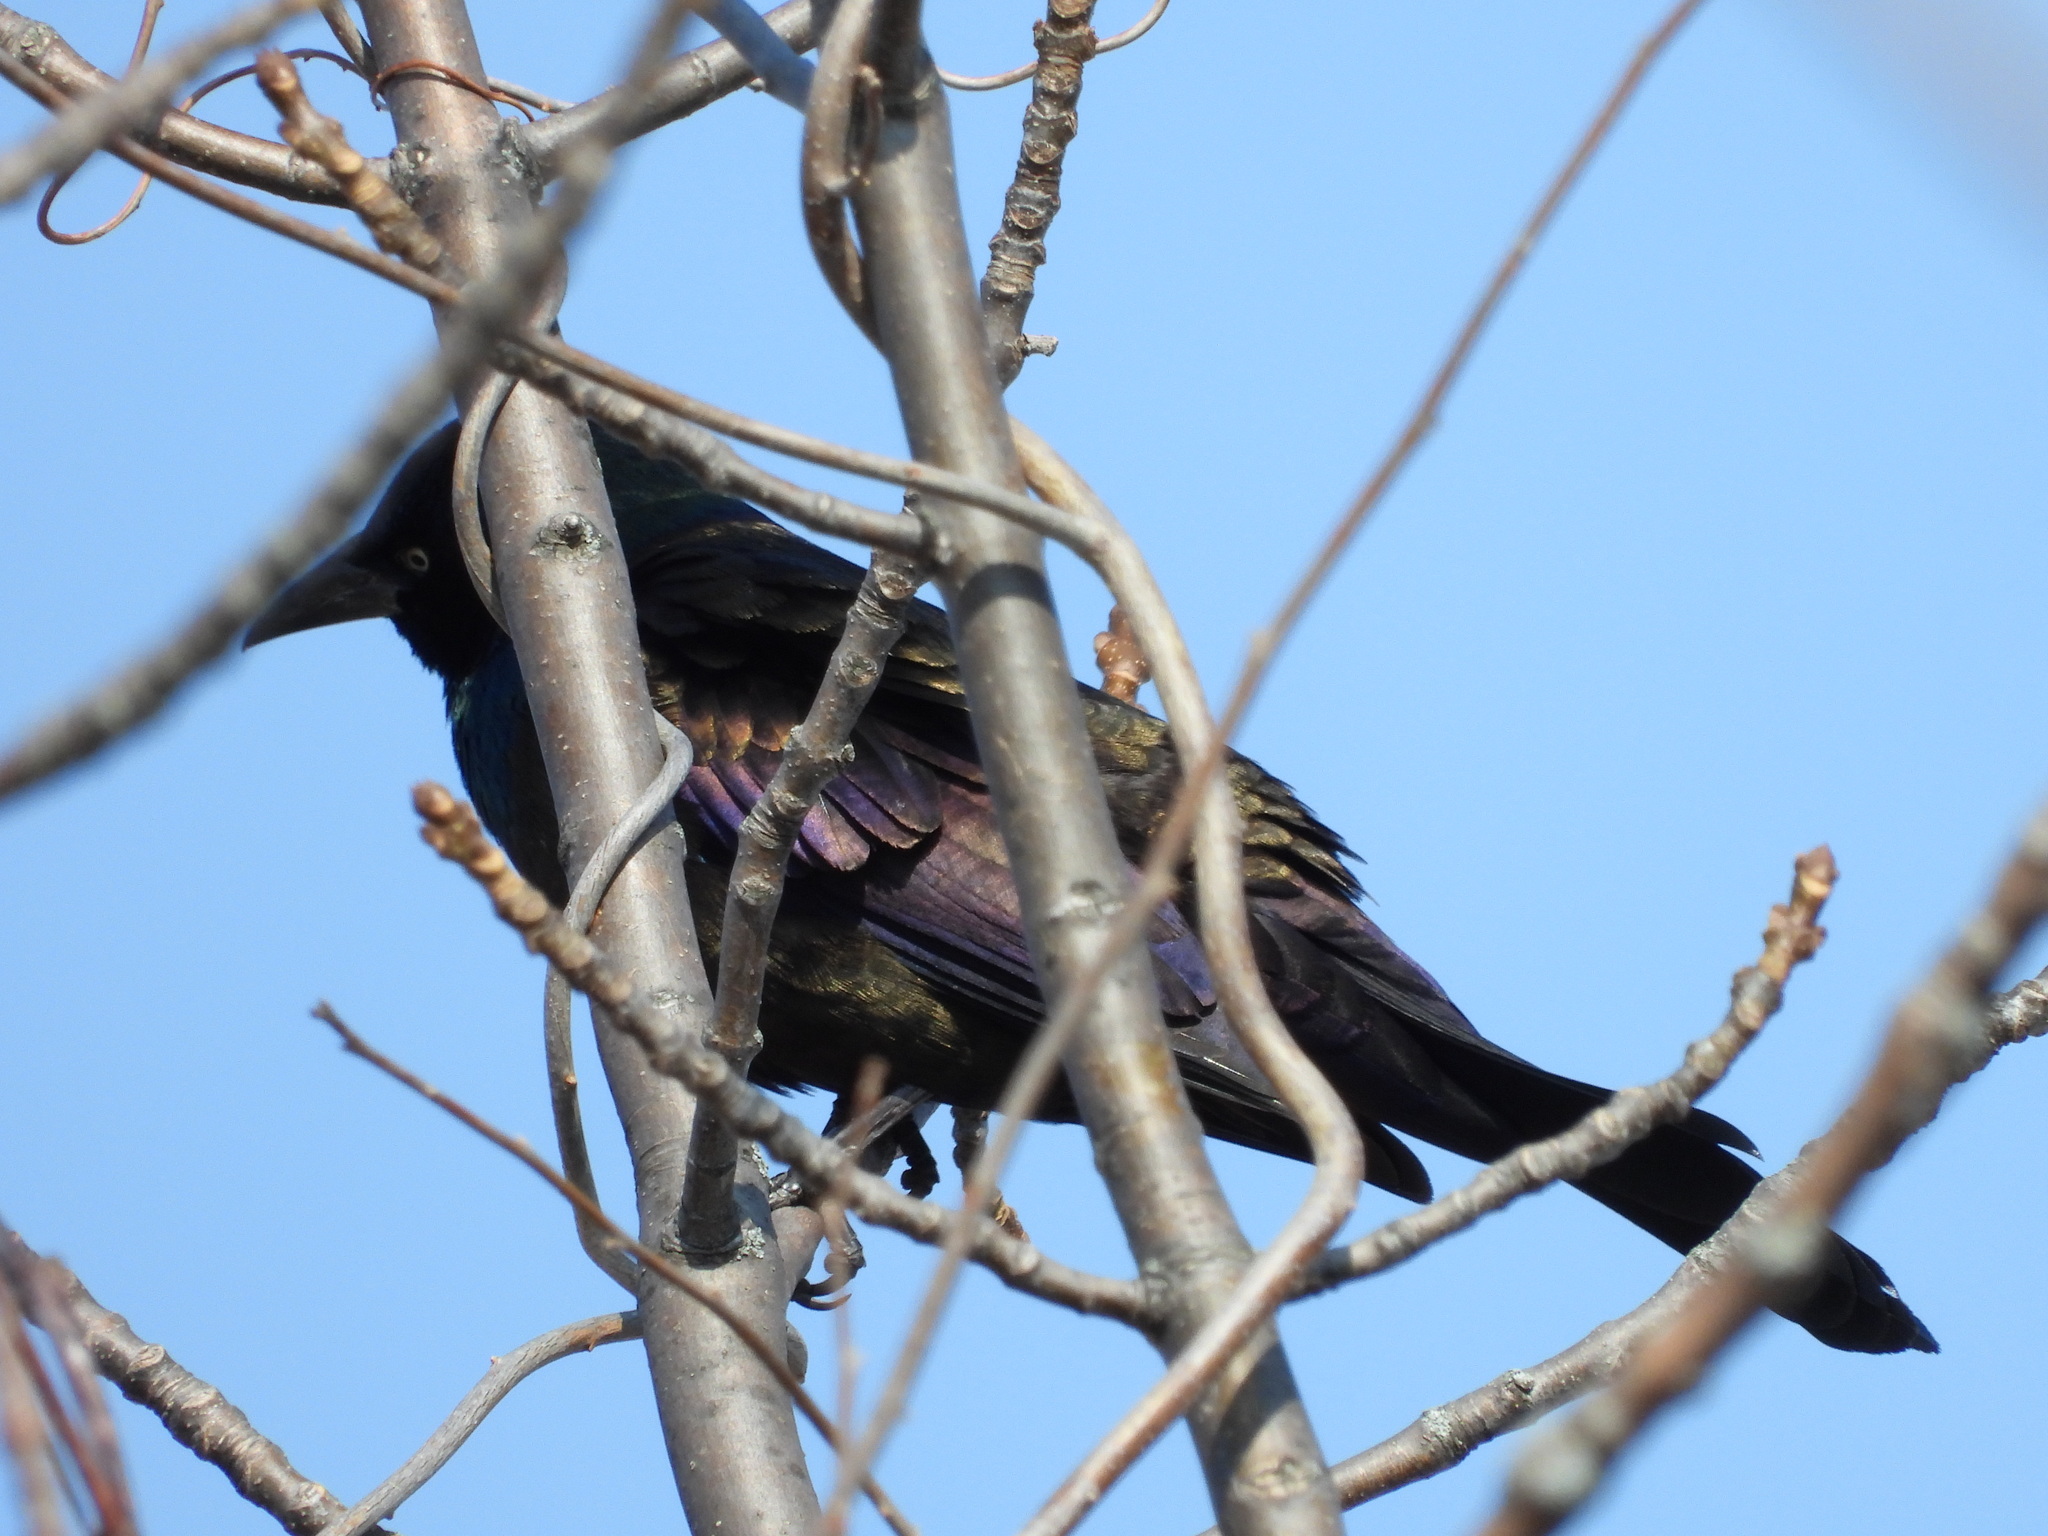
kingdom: Animalia
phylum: Chordata
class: Aves
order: Passeriformes
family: Icteridae
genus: Quiscalus
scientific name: Quiscalus quiscula
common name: Common grackle
